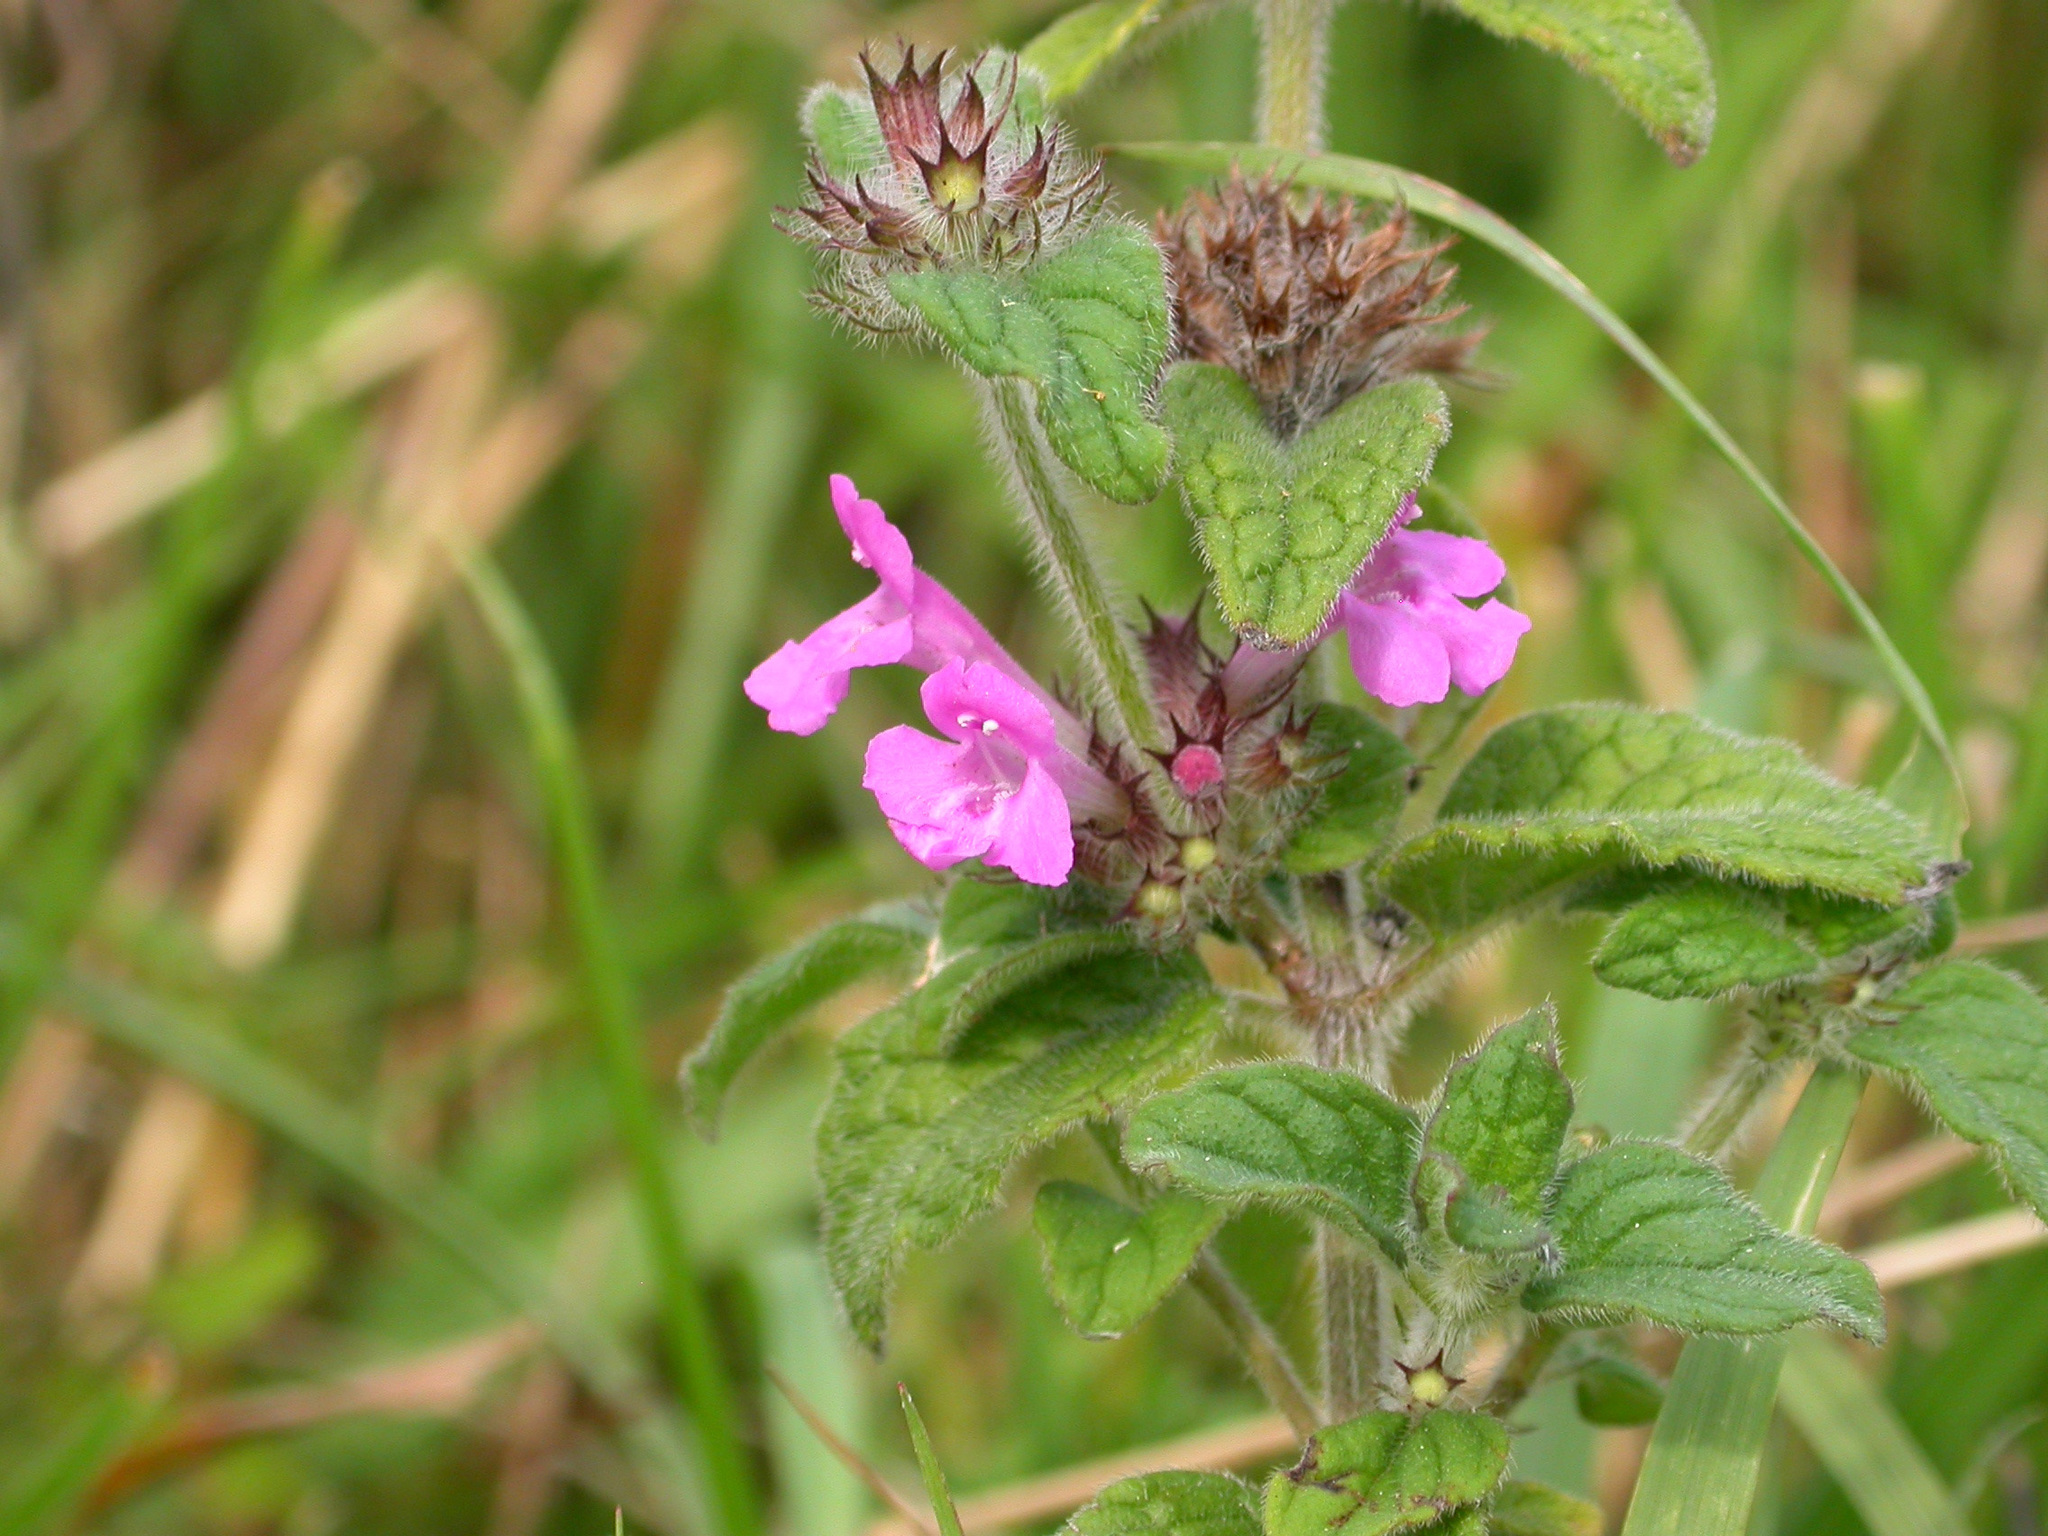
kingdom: Plantae
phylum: Tracheophyta
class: Magnoliopsida
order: Lamiales
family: Lamiaceae
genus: Clinopodium
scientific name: Clinopodium vulgare
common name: Wild basil
